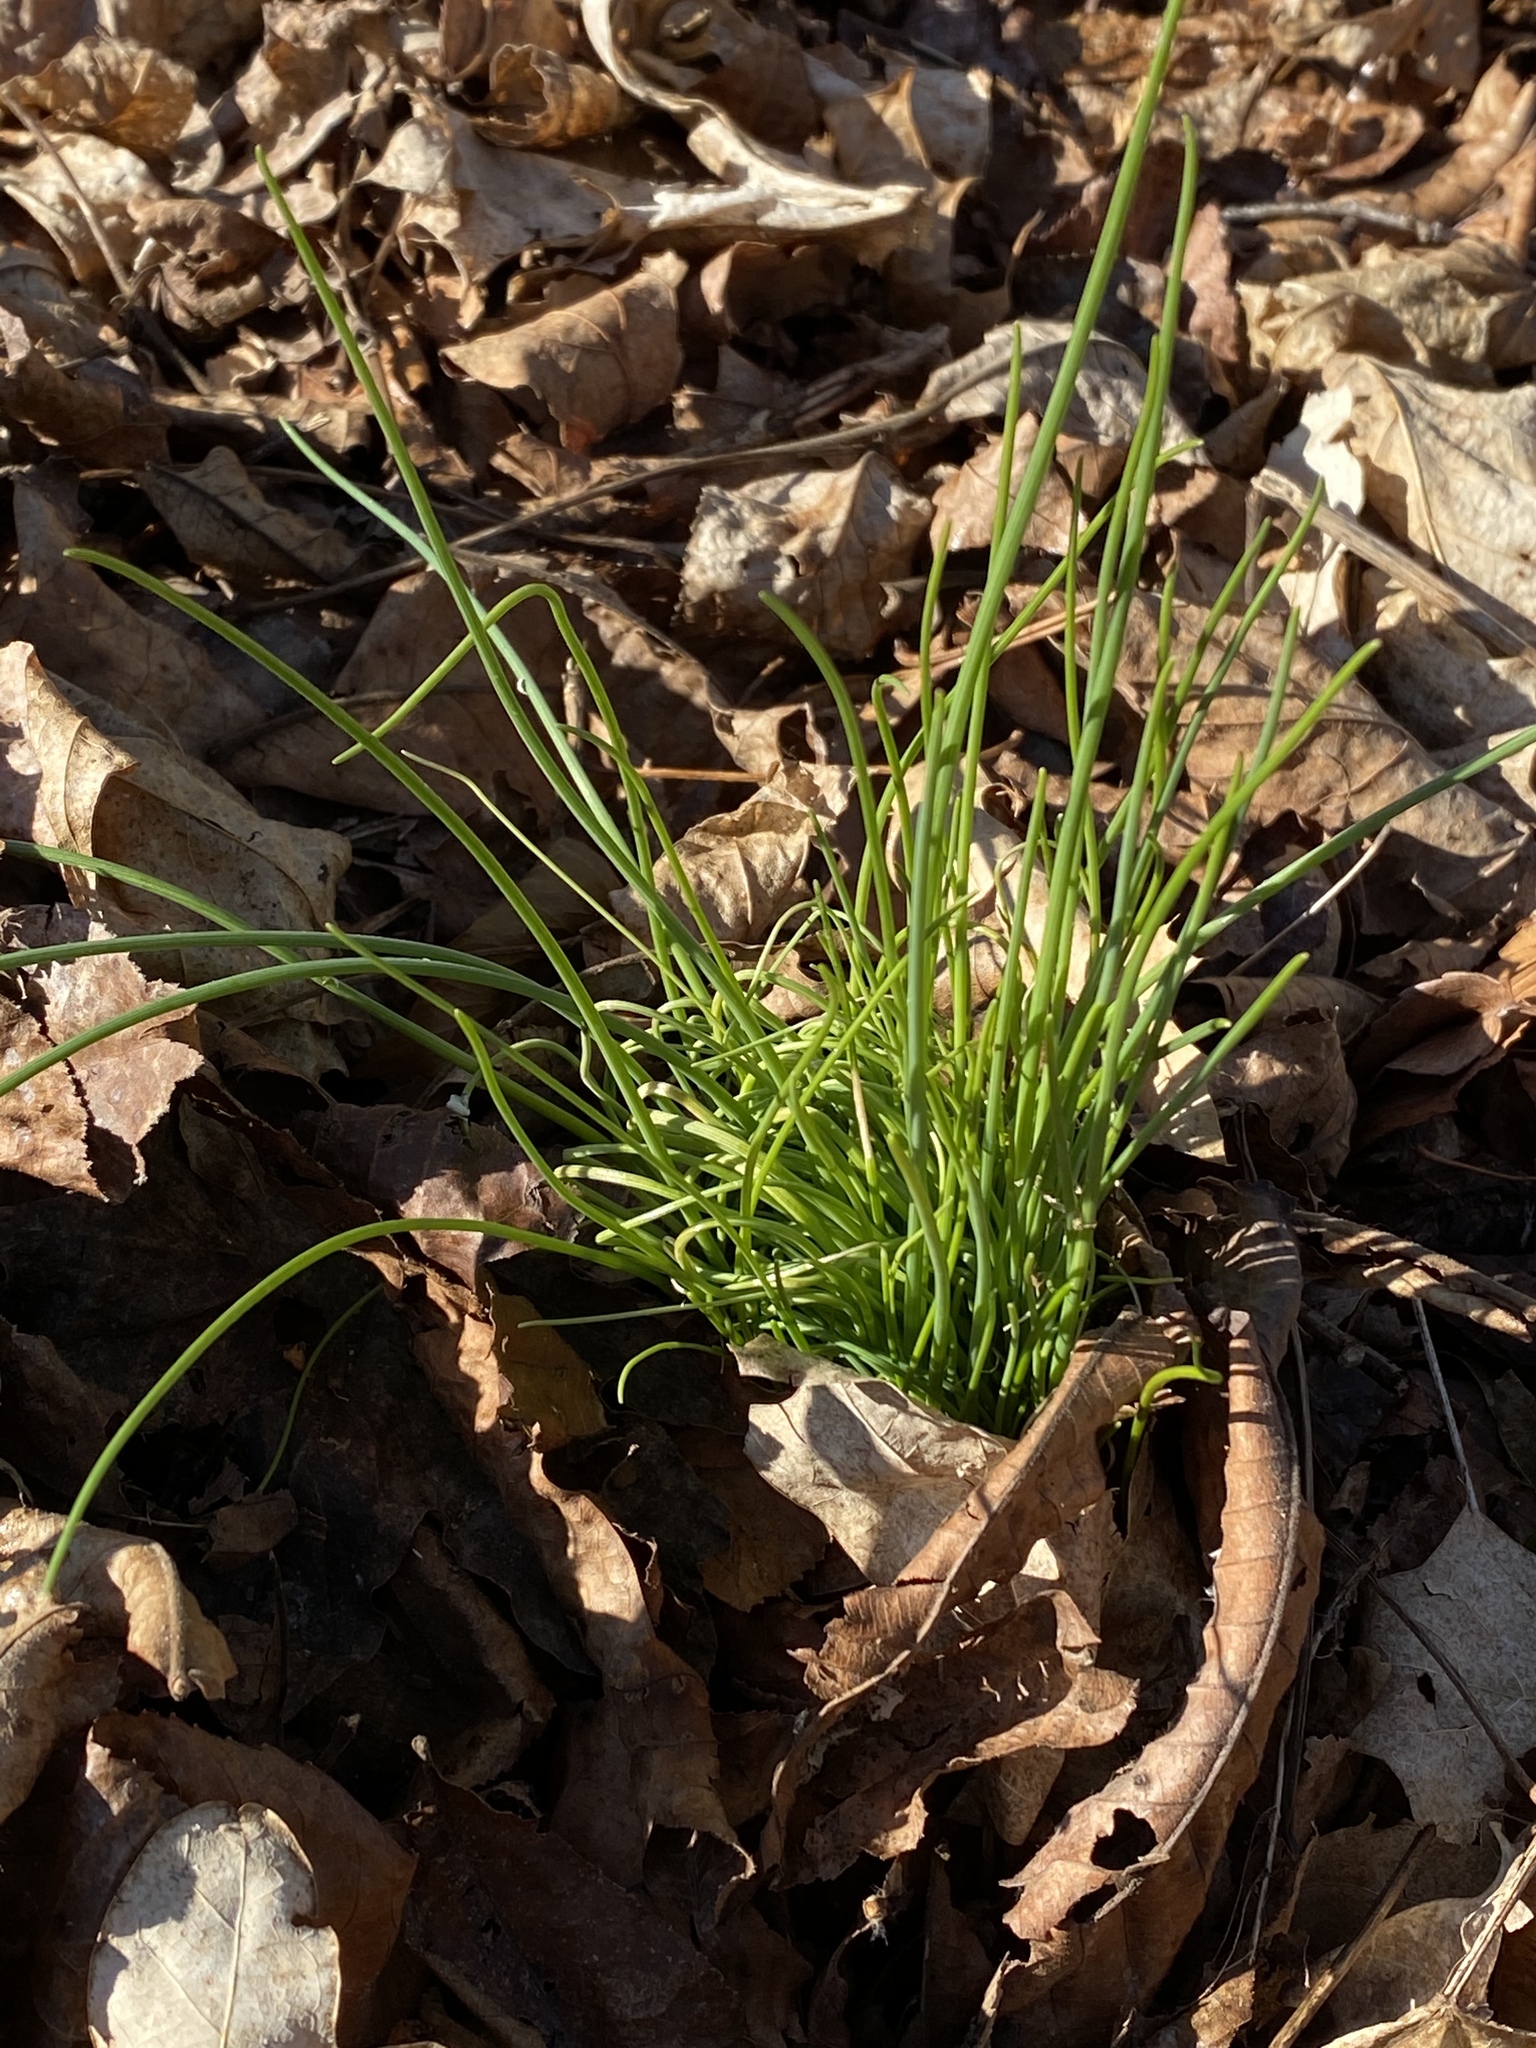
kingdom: Plantae
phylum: Tracheophyta
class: Liliopsida
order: Asparagales
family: Amaryllidaceae
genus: Allium
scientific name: Allium vineale
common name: Crow garlic
